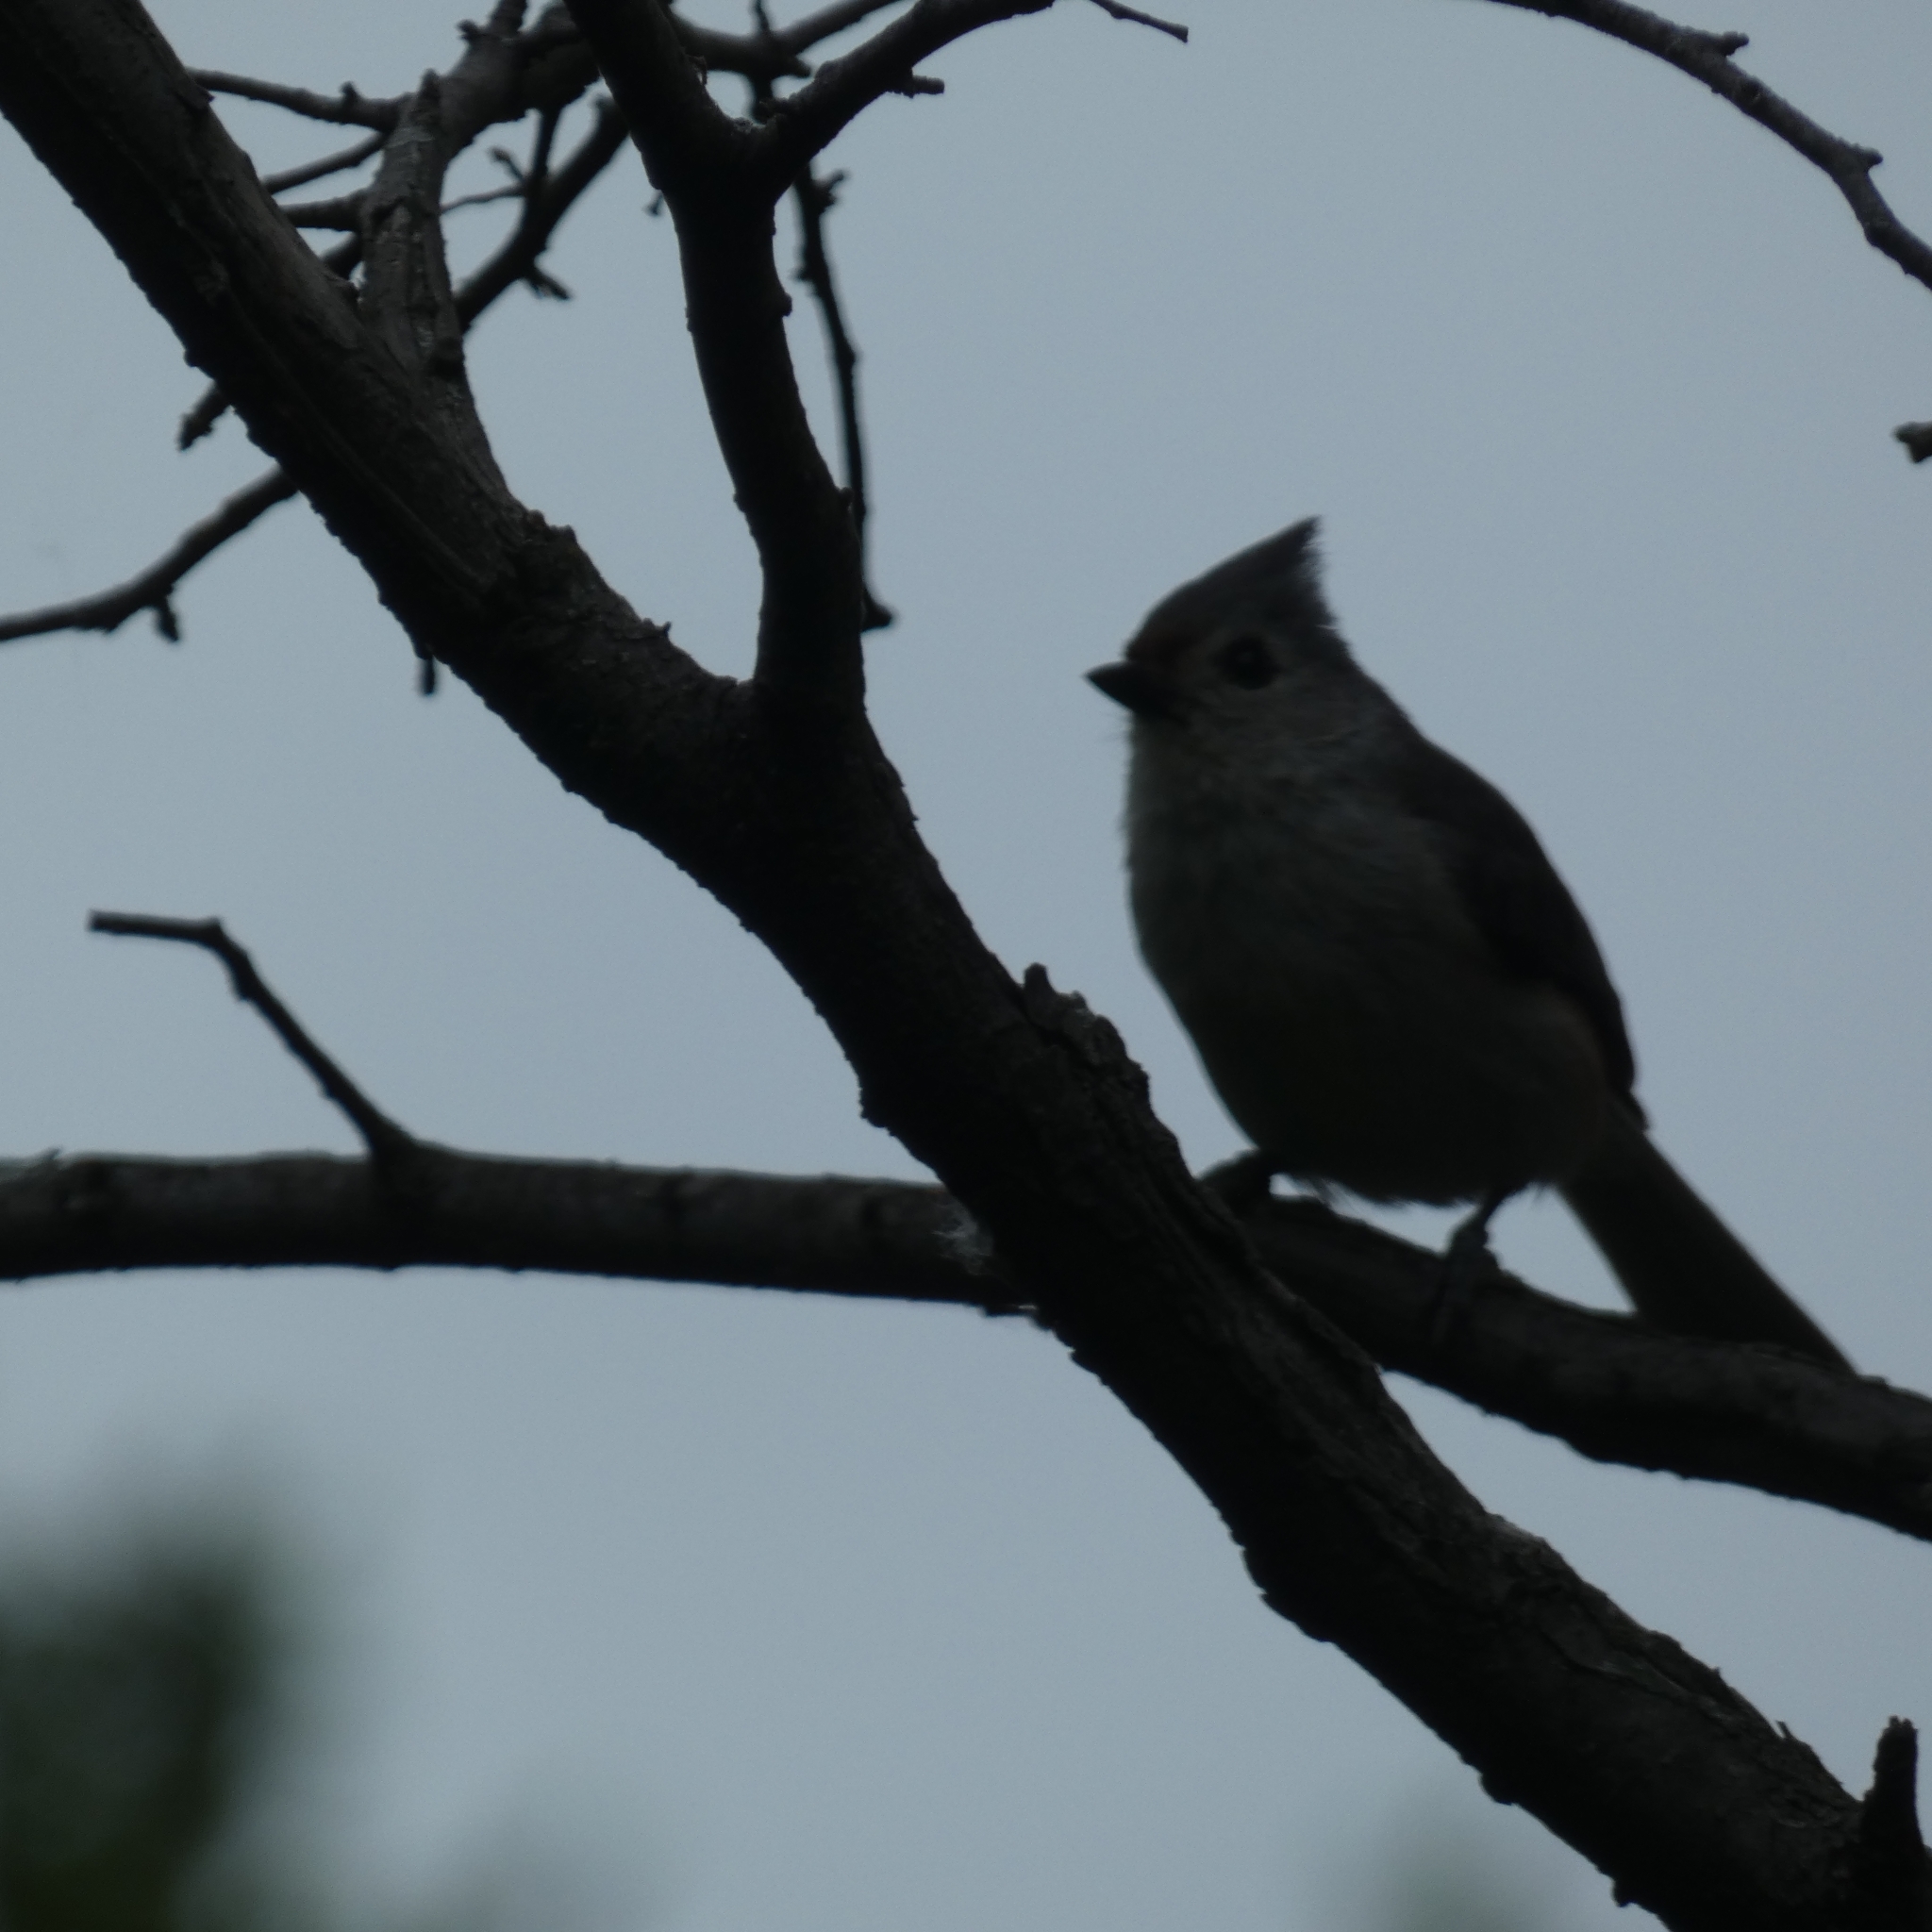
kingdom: Animalia
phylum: Chordata
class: Aves
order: Passeriformes
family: Paridae
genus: Baeolophus
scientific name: Baeolophus bicolor
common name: Tufted titmouse
